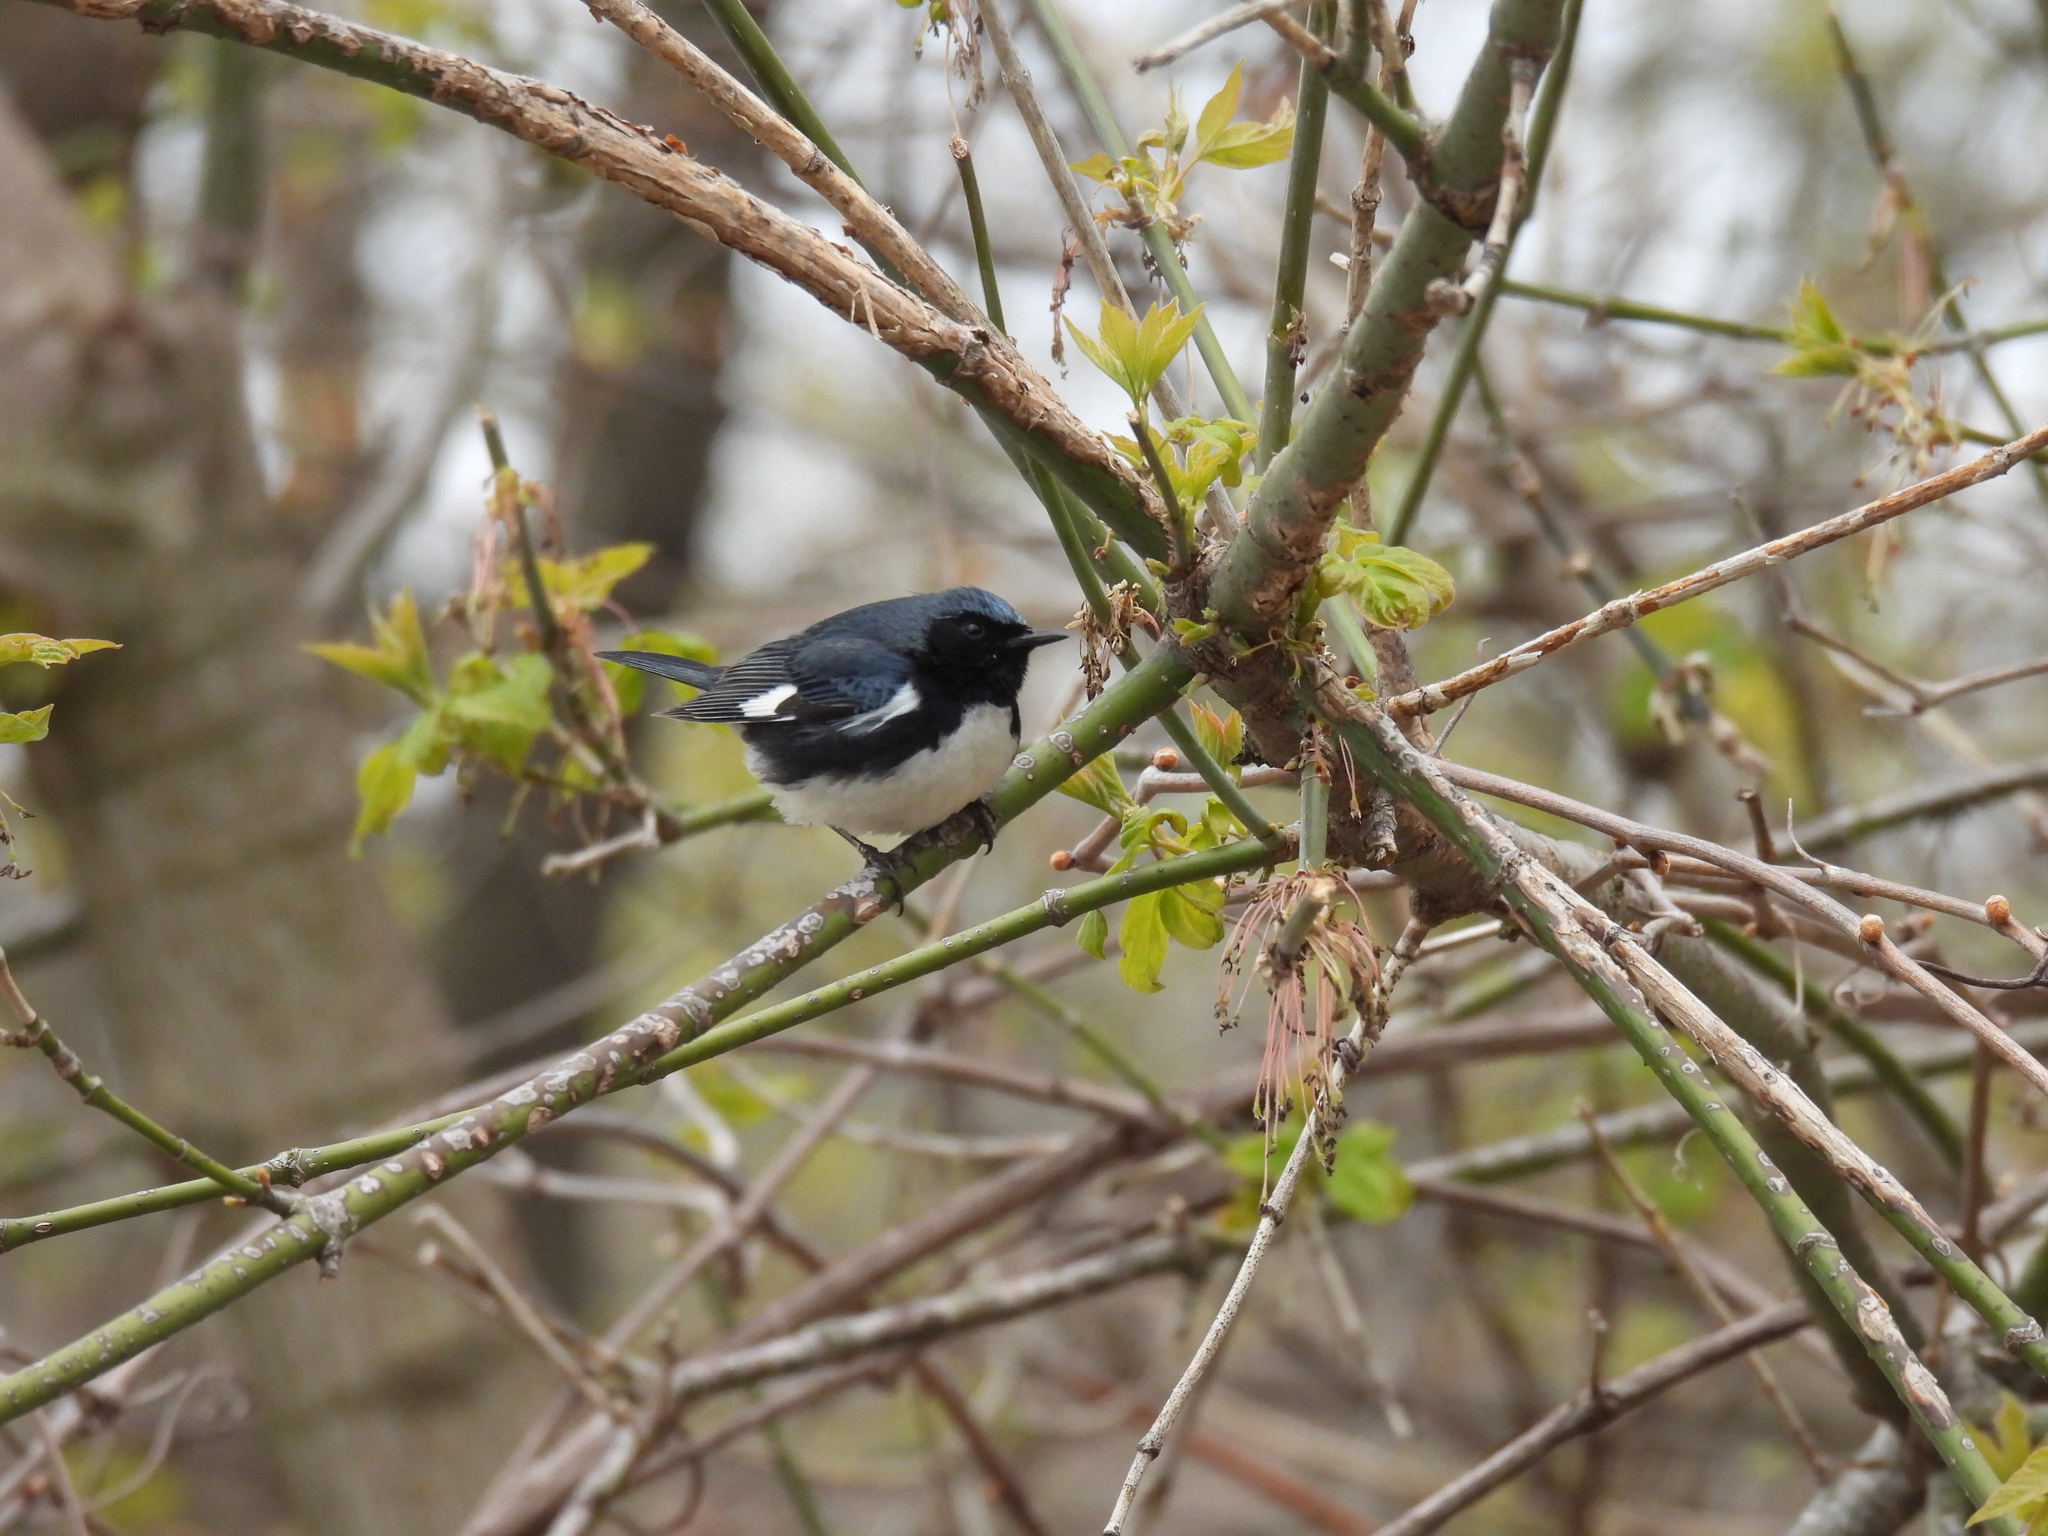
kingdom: Animalia
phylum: Chordata
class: Aves
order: Passeriformes
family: Parulidae
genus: Setophaga
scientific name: Setophaga caerulescens
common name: Black-throated blue warbler
